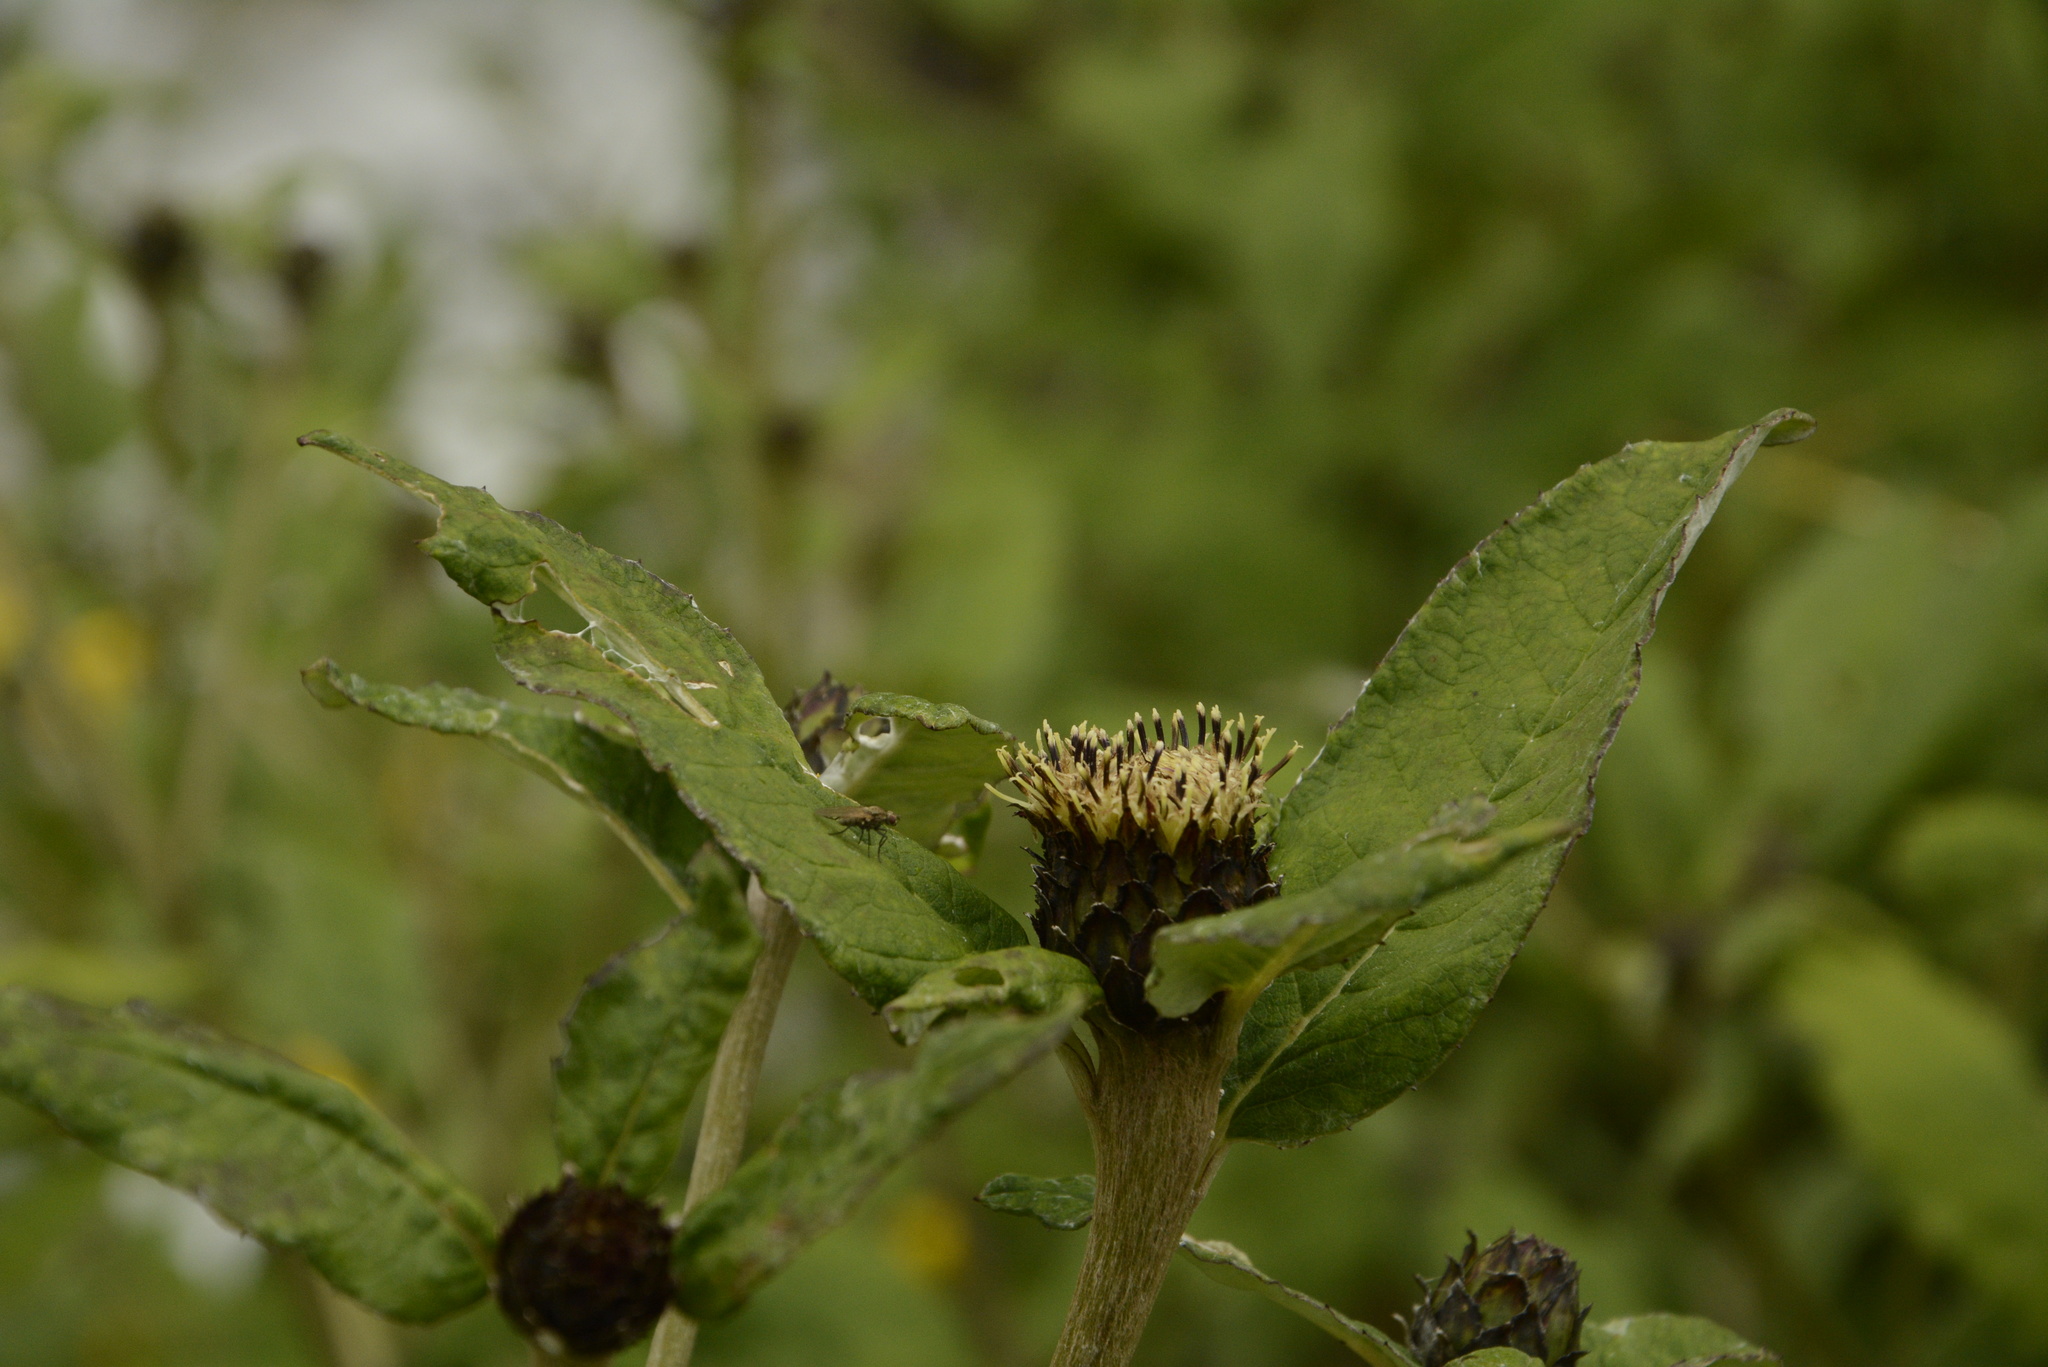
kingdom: Plantae
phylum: Tracheophyta
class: Magnoliopsida
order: Asterales
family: Asteraceae
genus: Shangwua
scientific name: Shangwua denticulata
